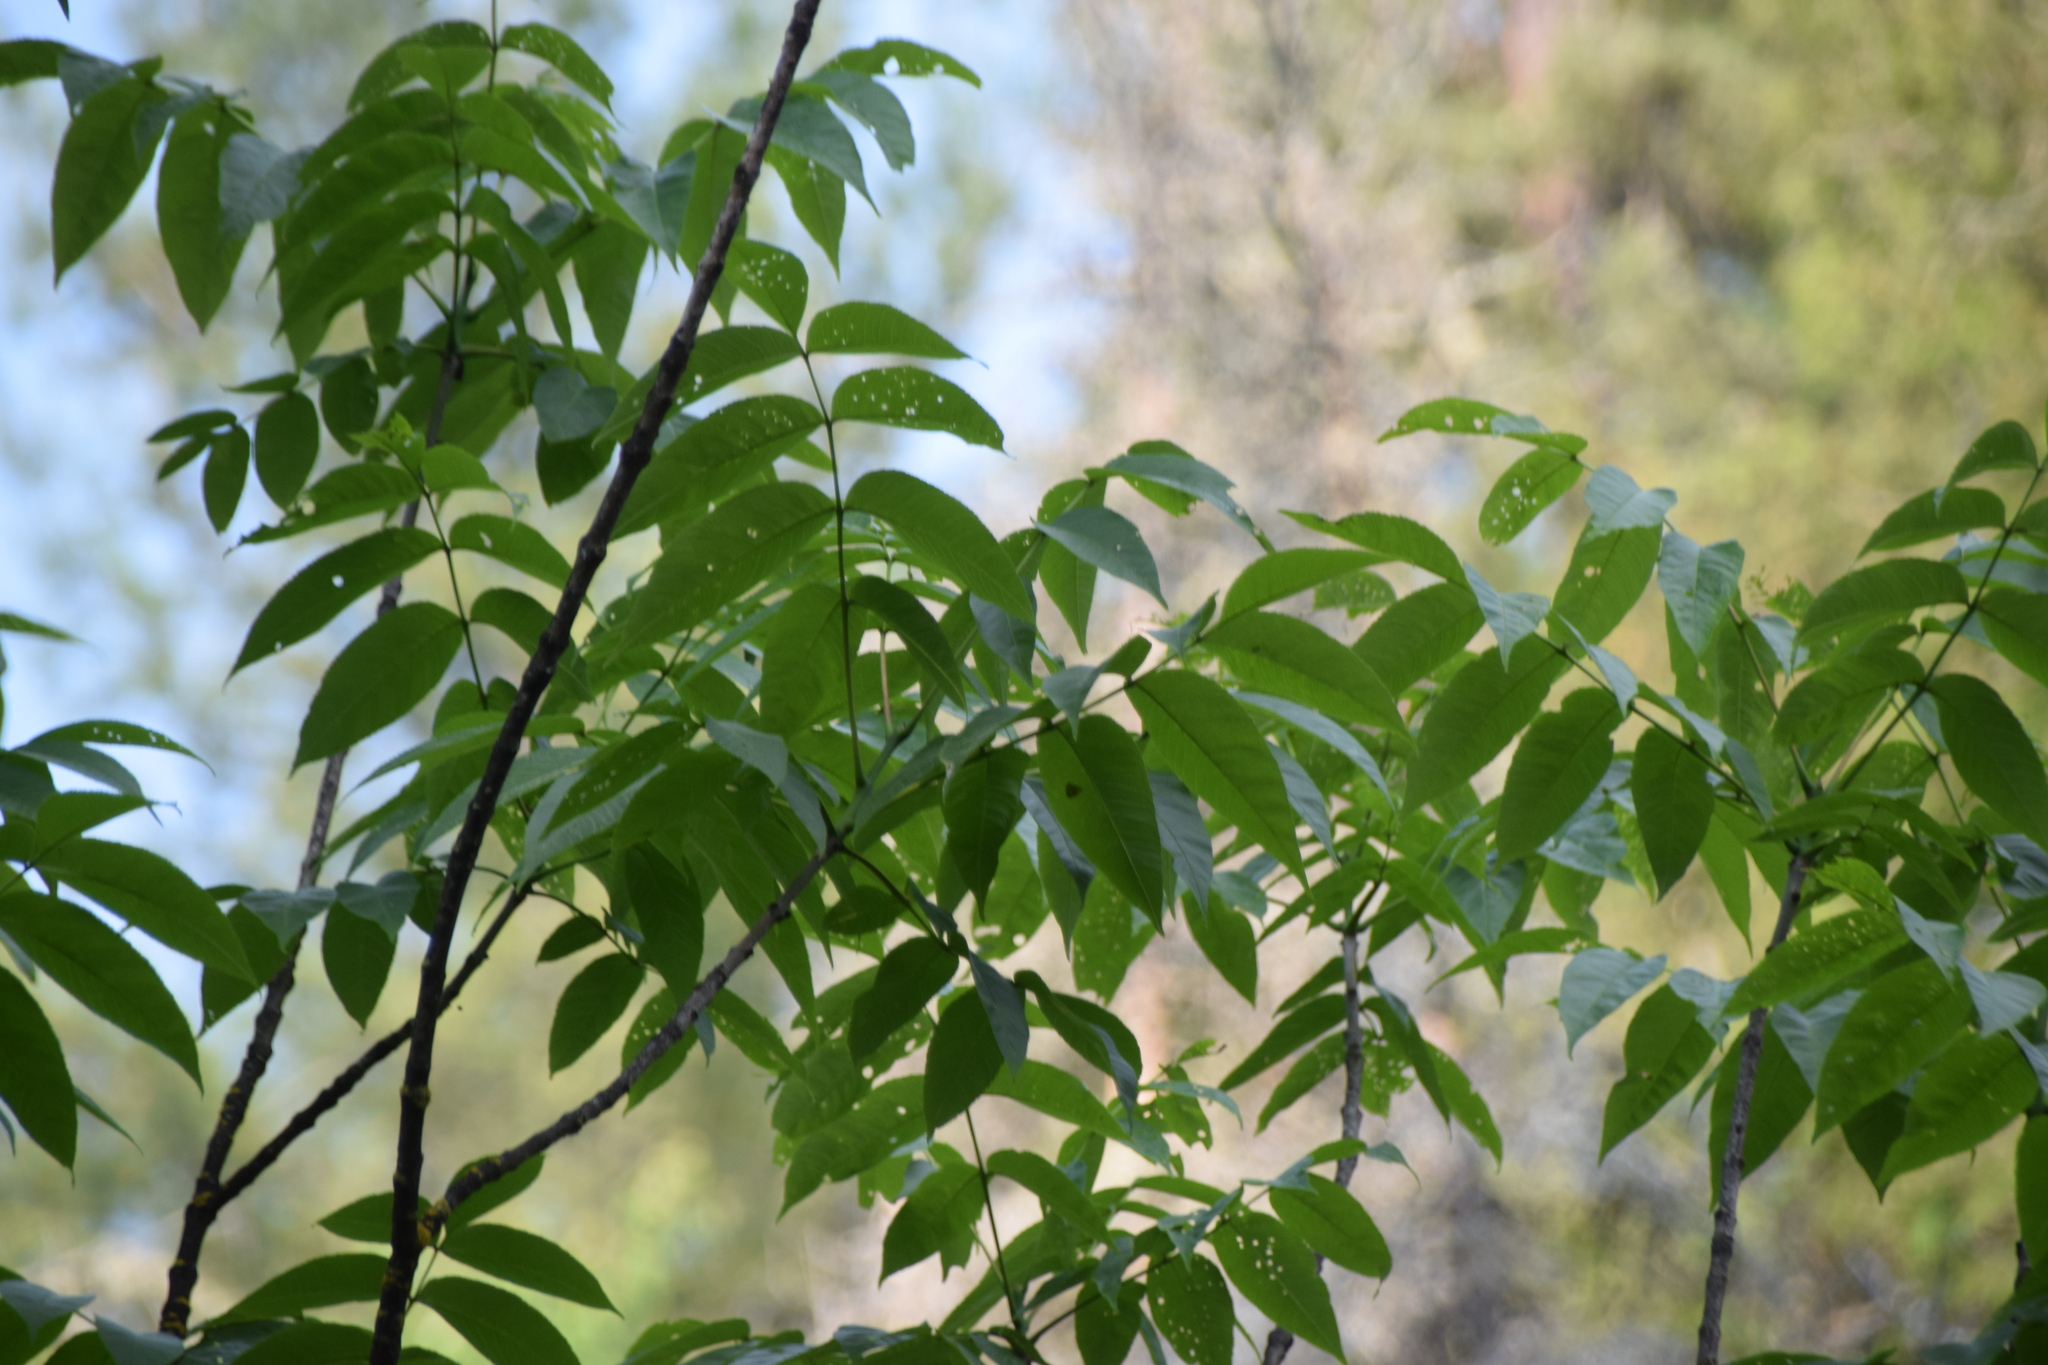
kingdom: Plantae
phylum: Tracheophyta
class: Magnoliopsida
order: Lamiales
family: Oleaceae
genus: Fraxinus
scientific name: Fraxinus nigra
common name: Black ash
